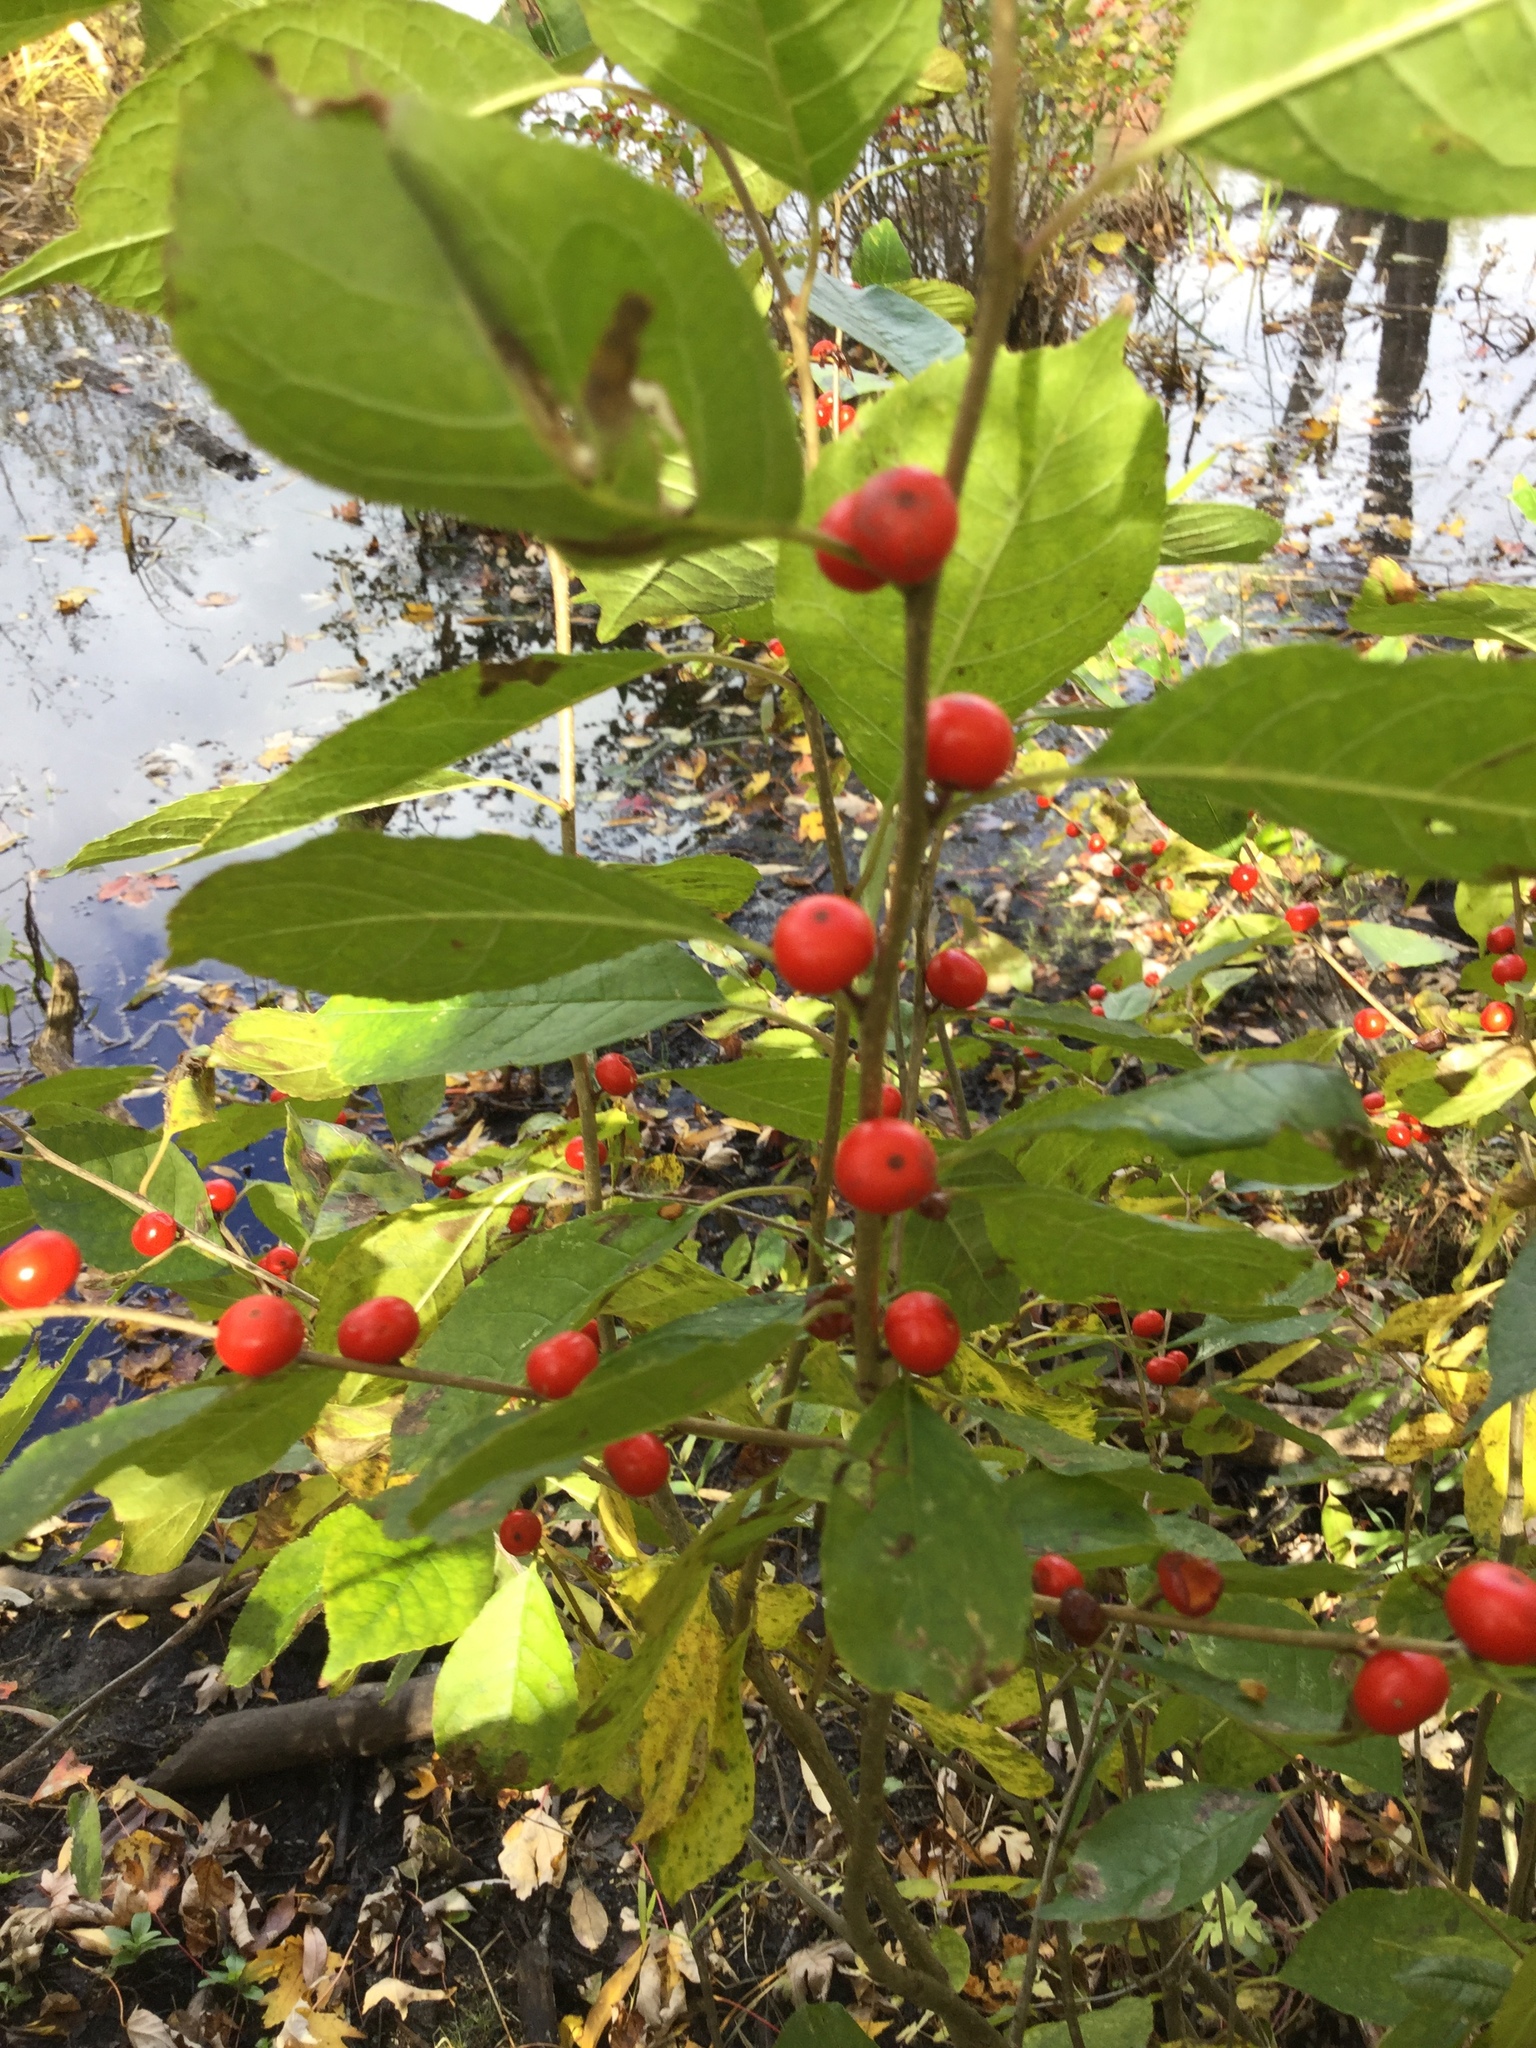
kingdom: Plantae
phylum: Tracheophyta
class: Magnoliopsida
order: Aquifoliales
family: Aquifoliaceae
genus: Ilex
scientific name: Ilex verticillata
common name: Virginia winterberry
